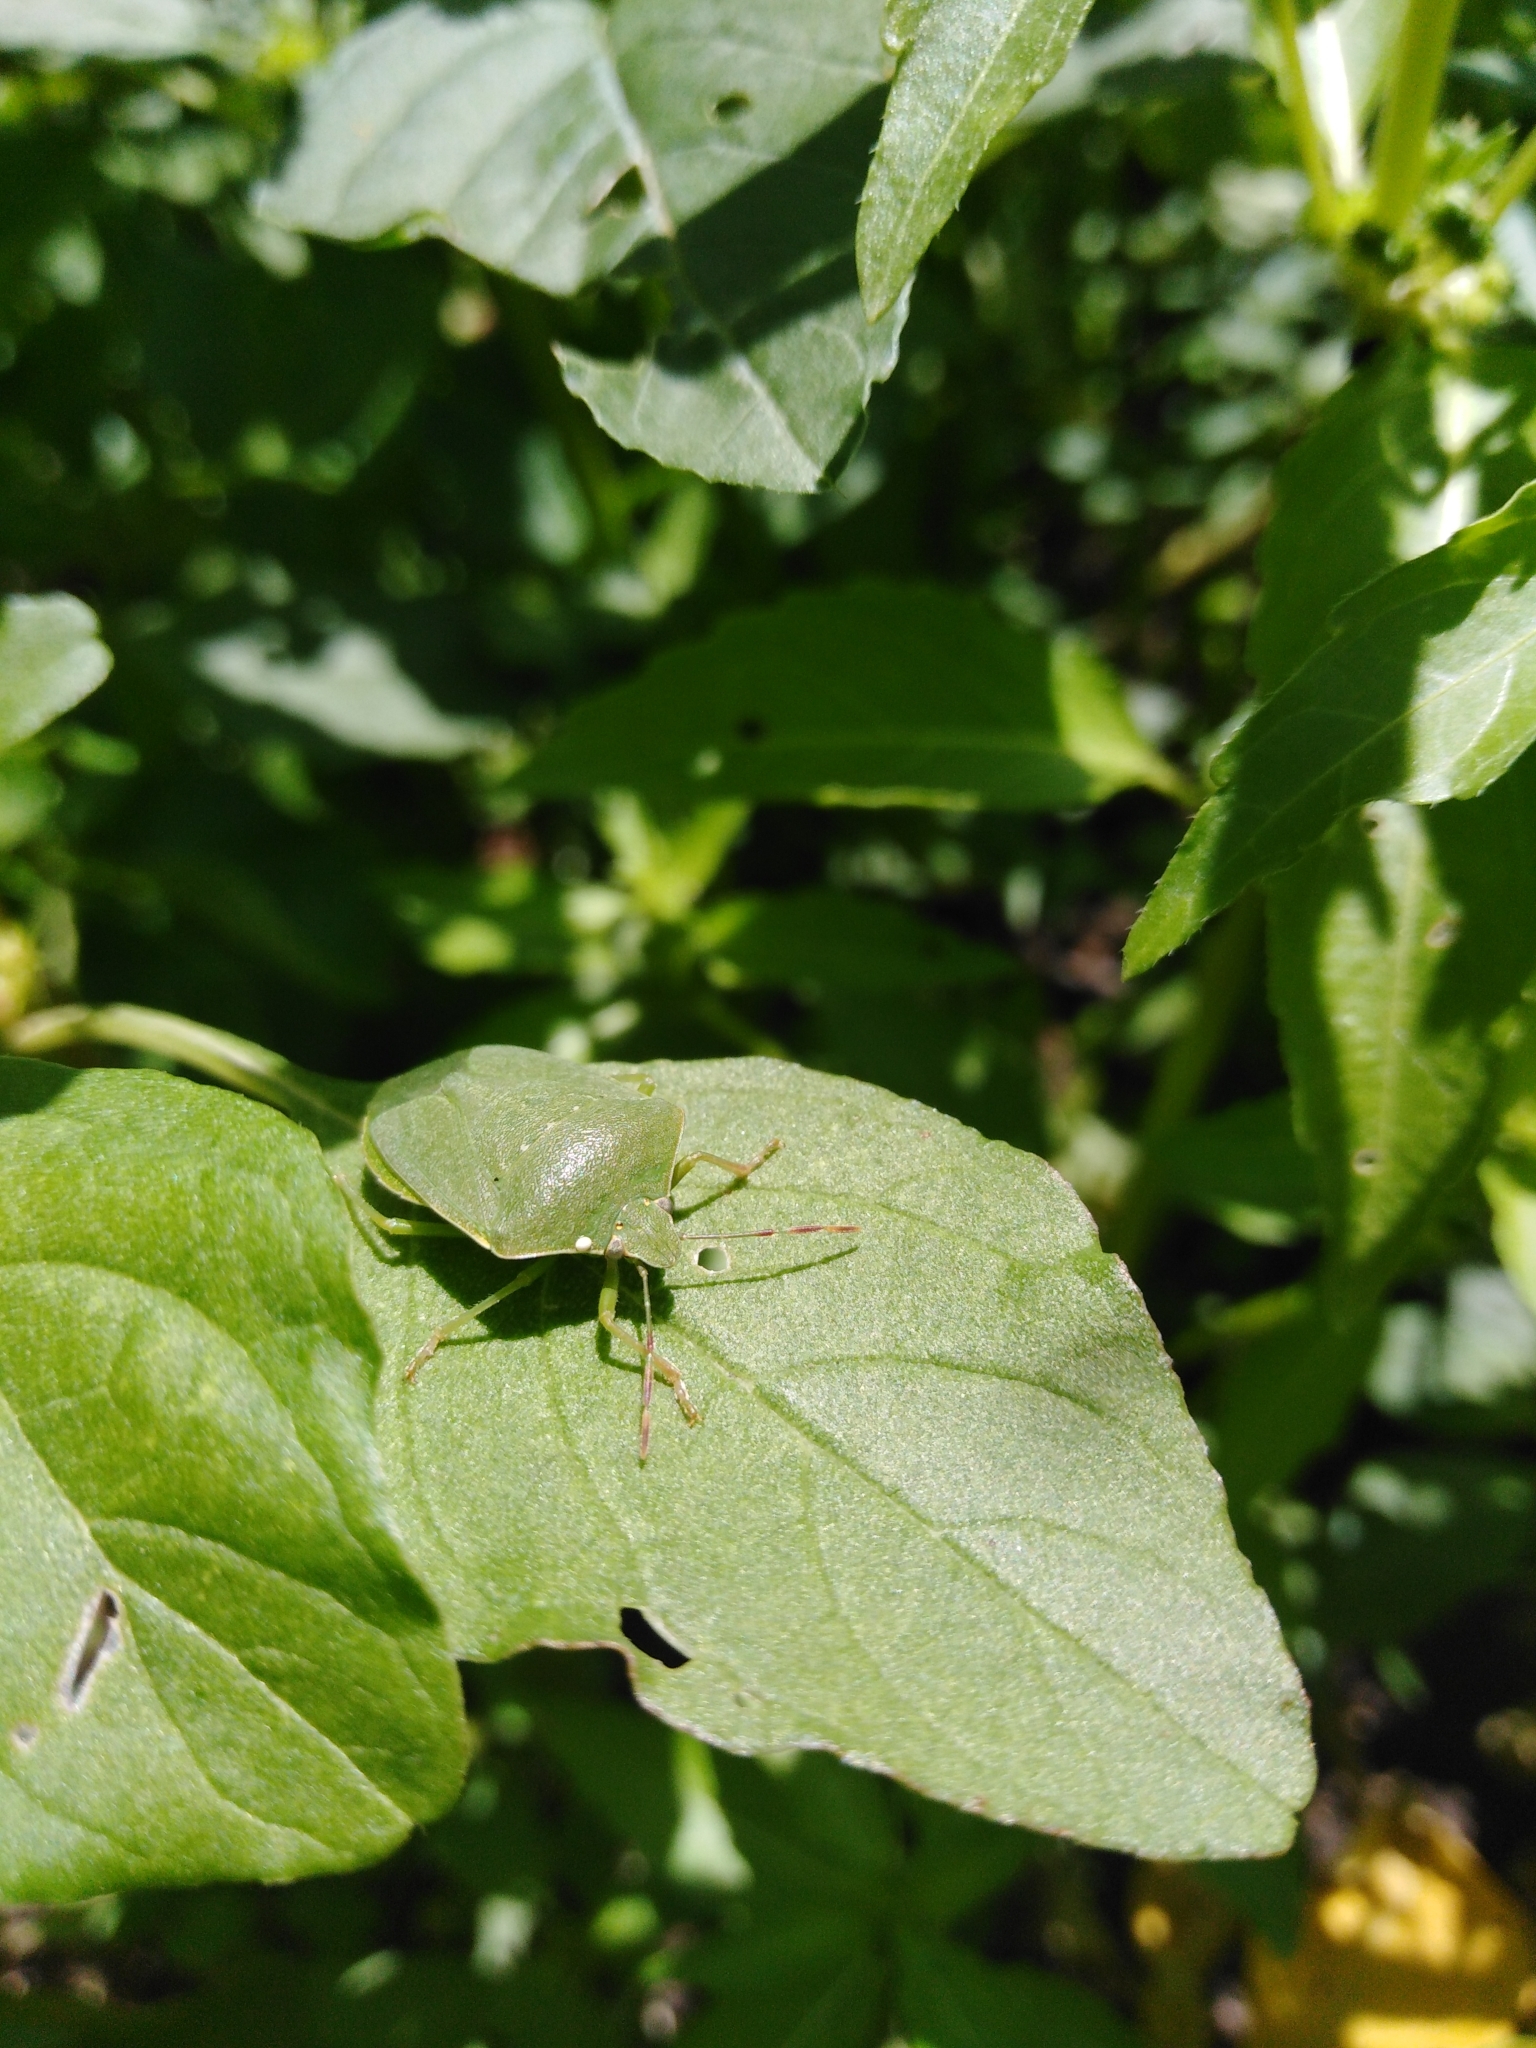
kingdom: Animalia
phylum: Arthropoda
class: Insecta
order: Hemiptera
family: Pentatomidae
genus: Nezara
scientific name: Nezara viridula
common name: Southern green stink bug
